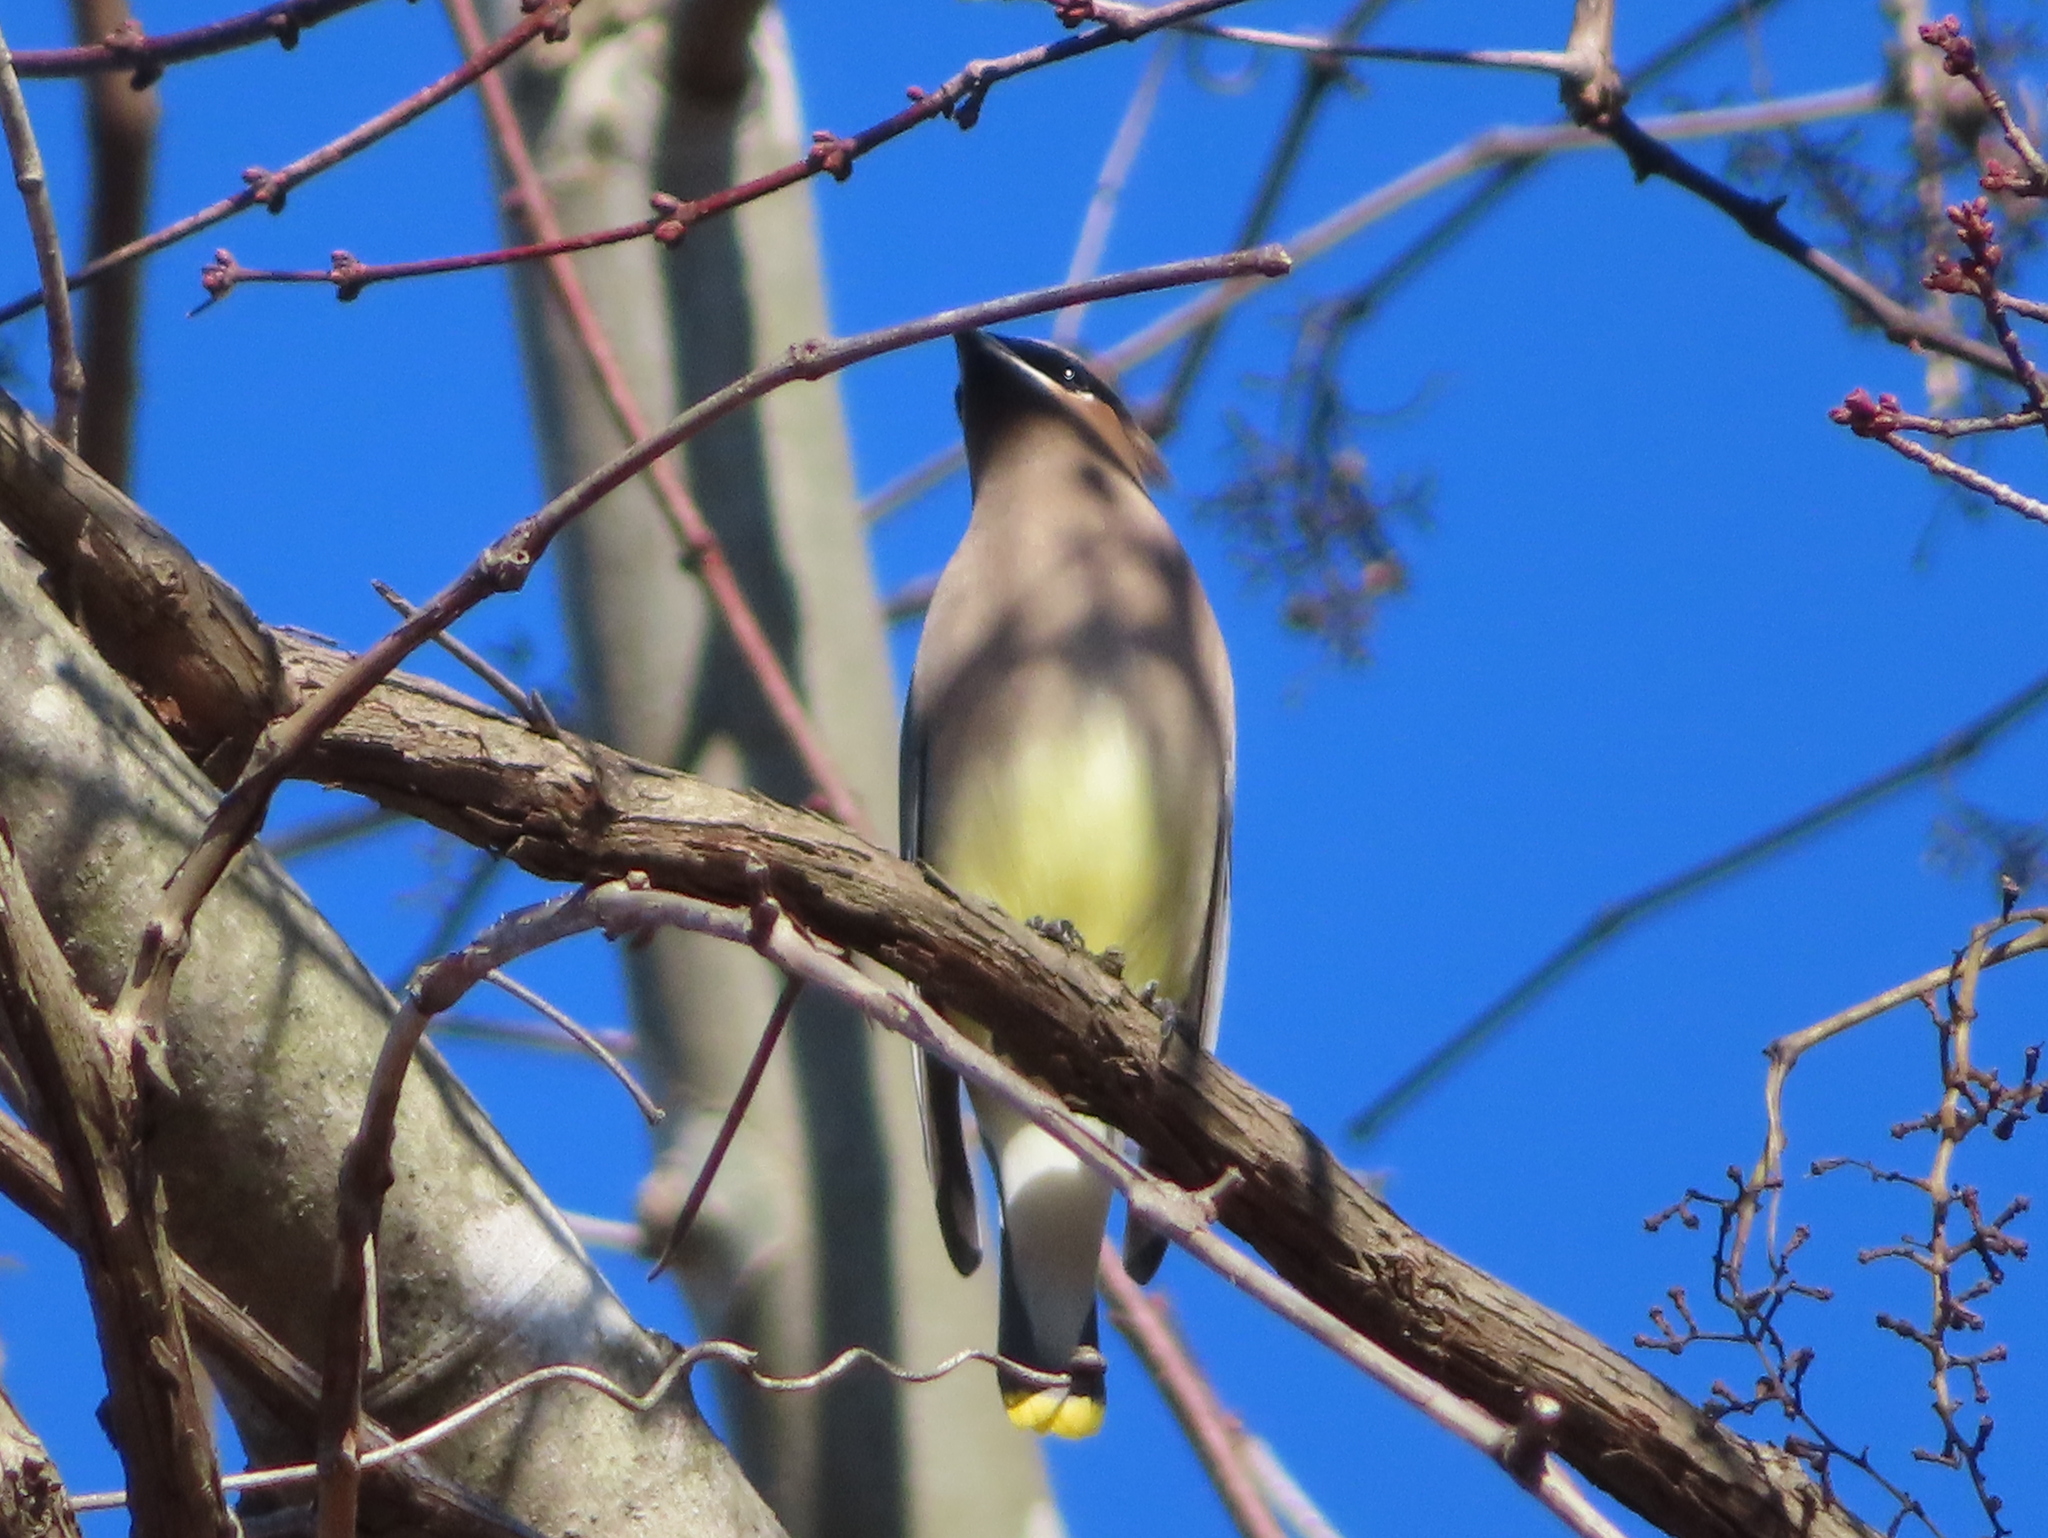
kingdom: Animalia
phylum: Chordata
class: Aves
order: Passeriformes
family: Bombycillidae
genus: Bombycilla
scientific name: Bombycilla cedrorum
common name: Cedar waxwing
